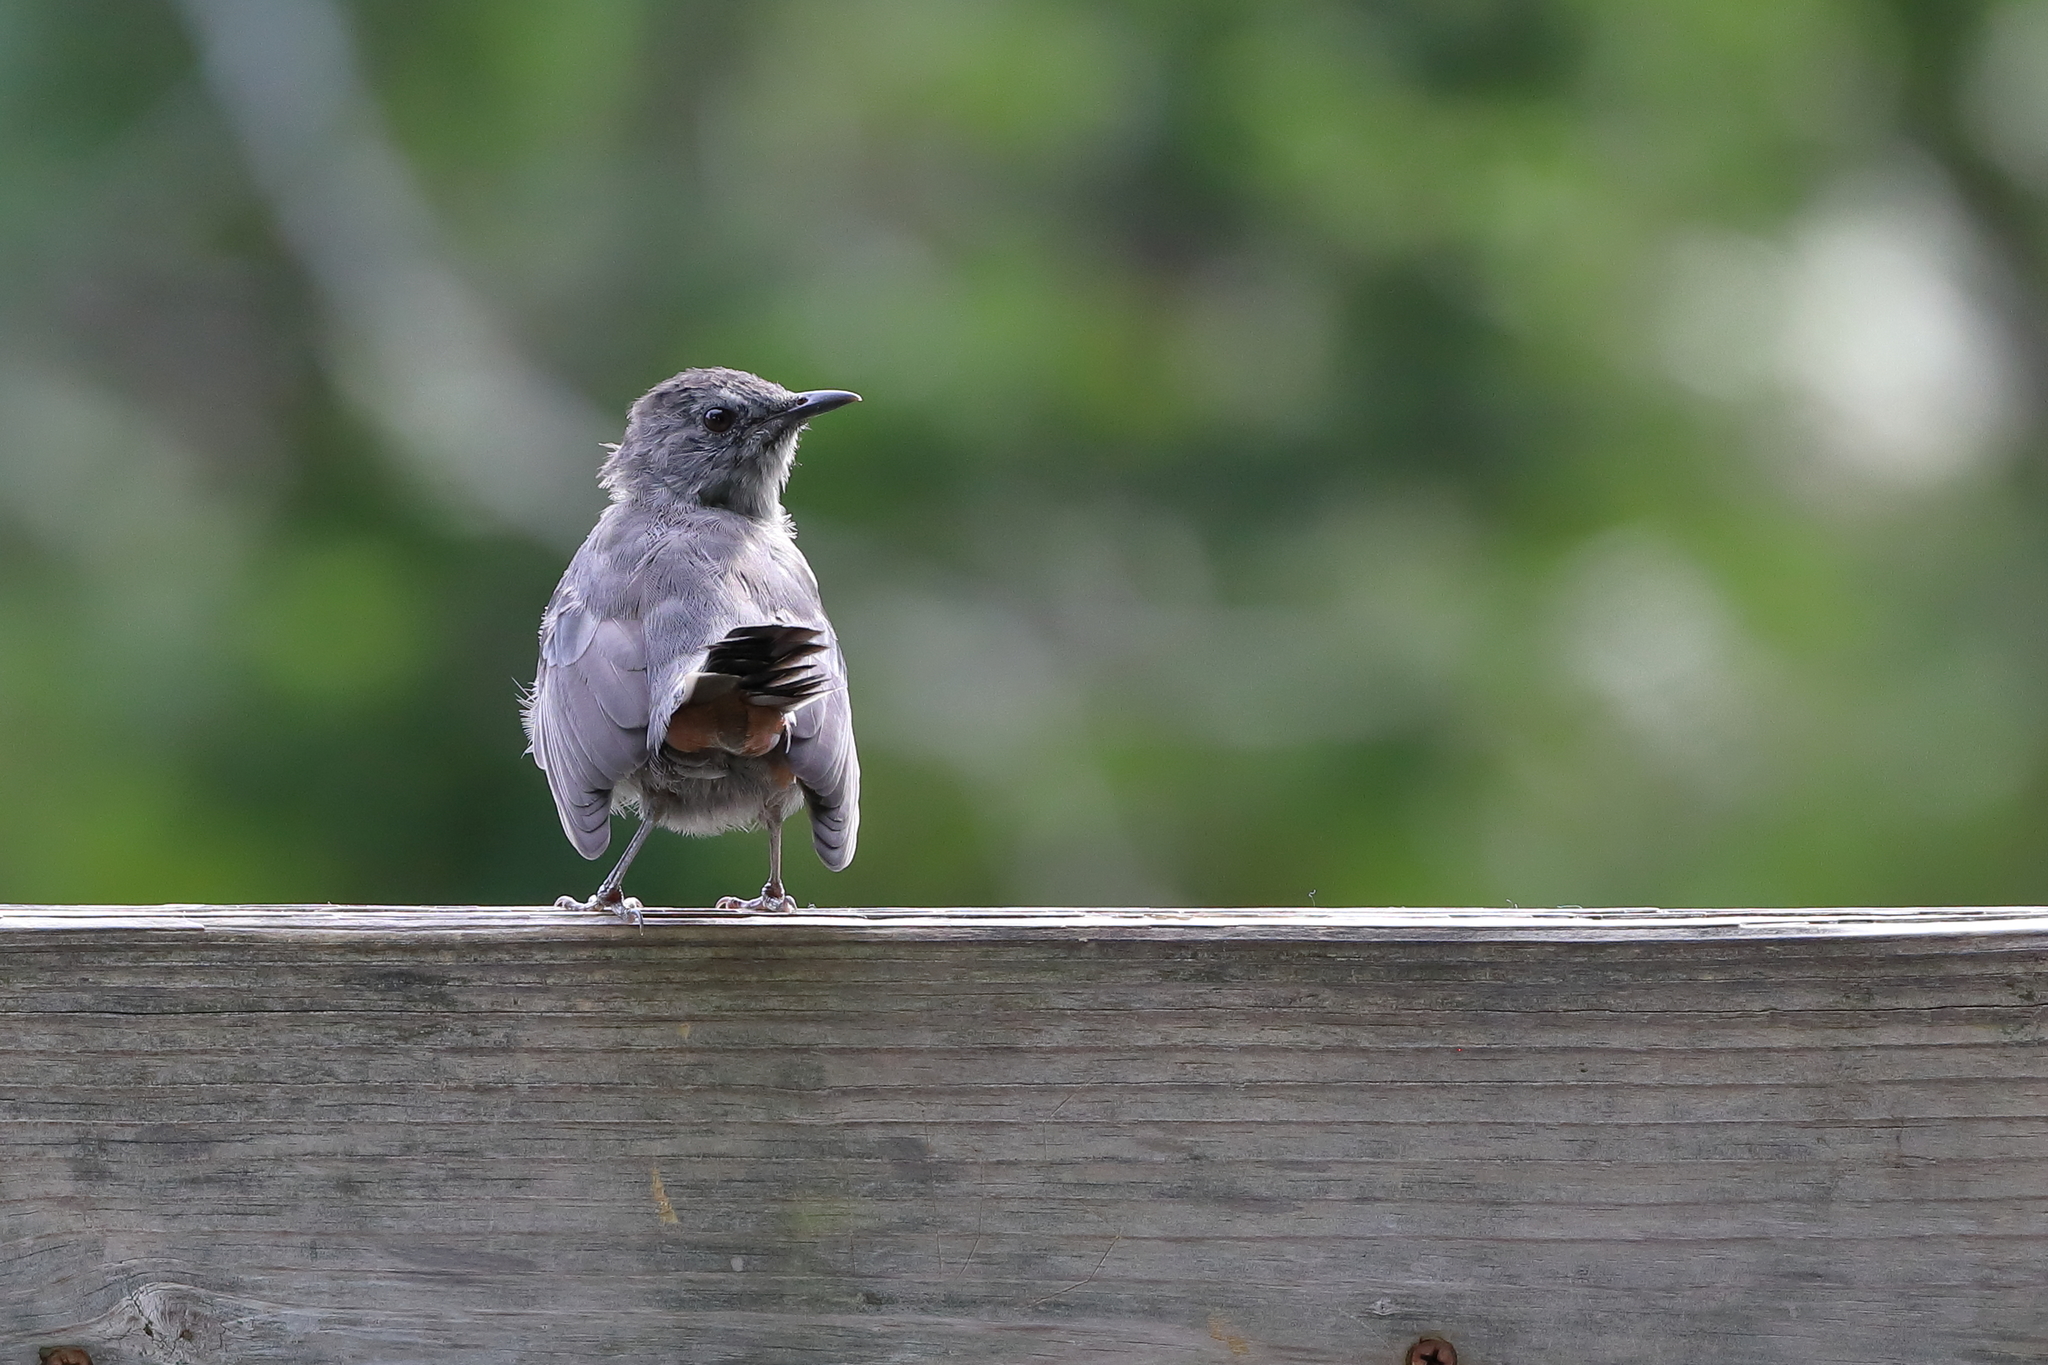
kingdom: Animalia
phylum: Chordata
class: Aves
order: Passeriformes
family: Mimidae
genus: Dumetella
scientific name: Dumetella carolinensis
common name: Gray catbird
